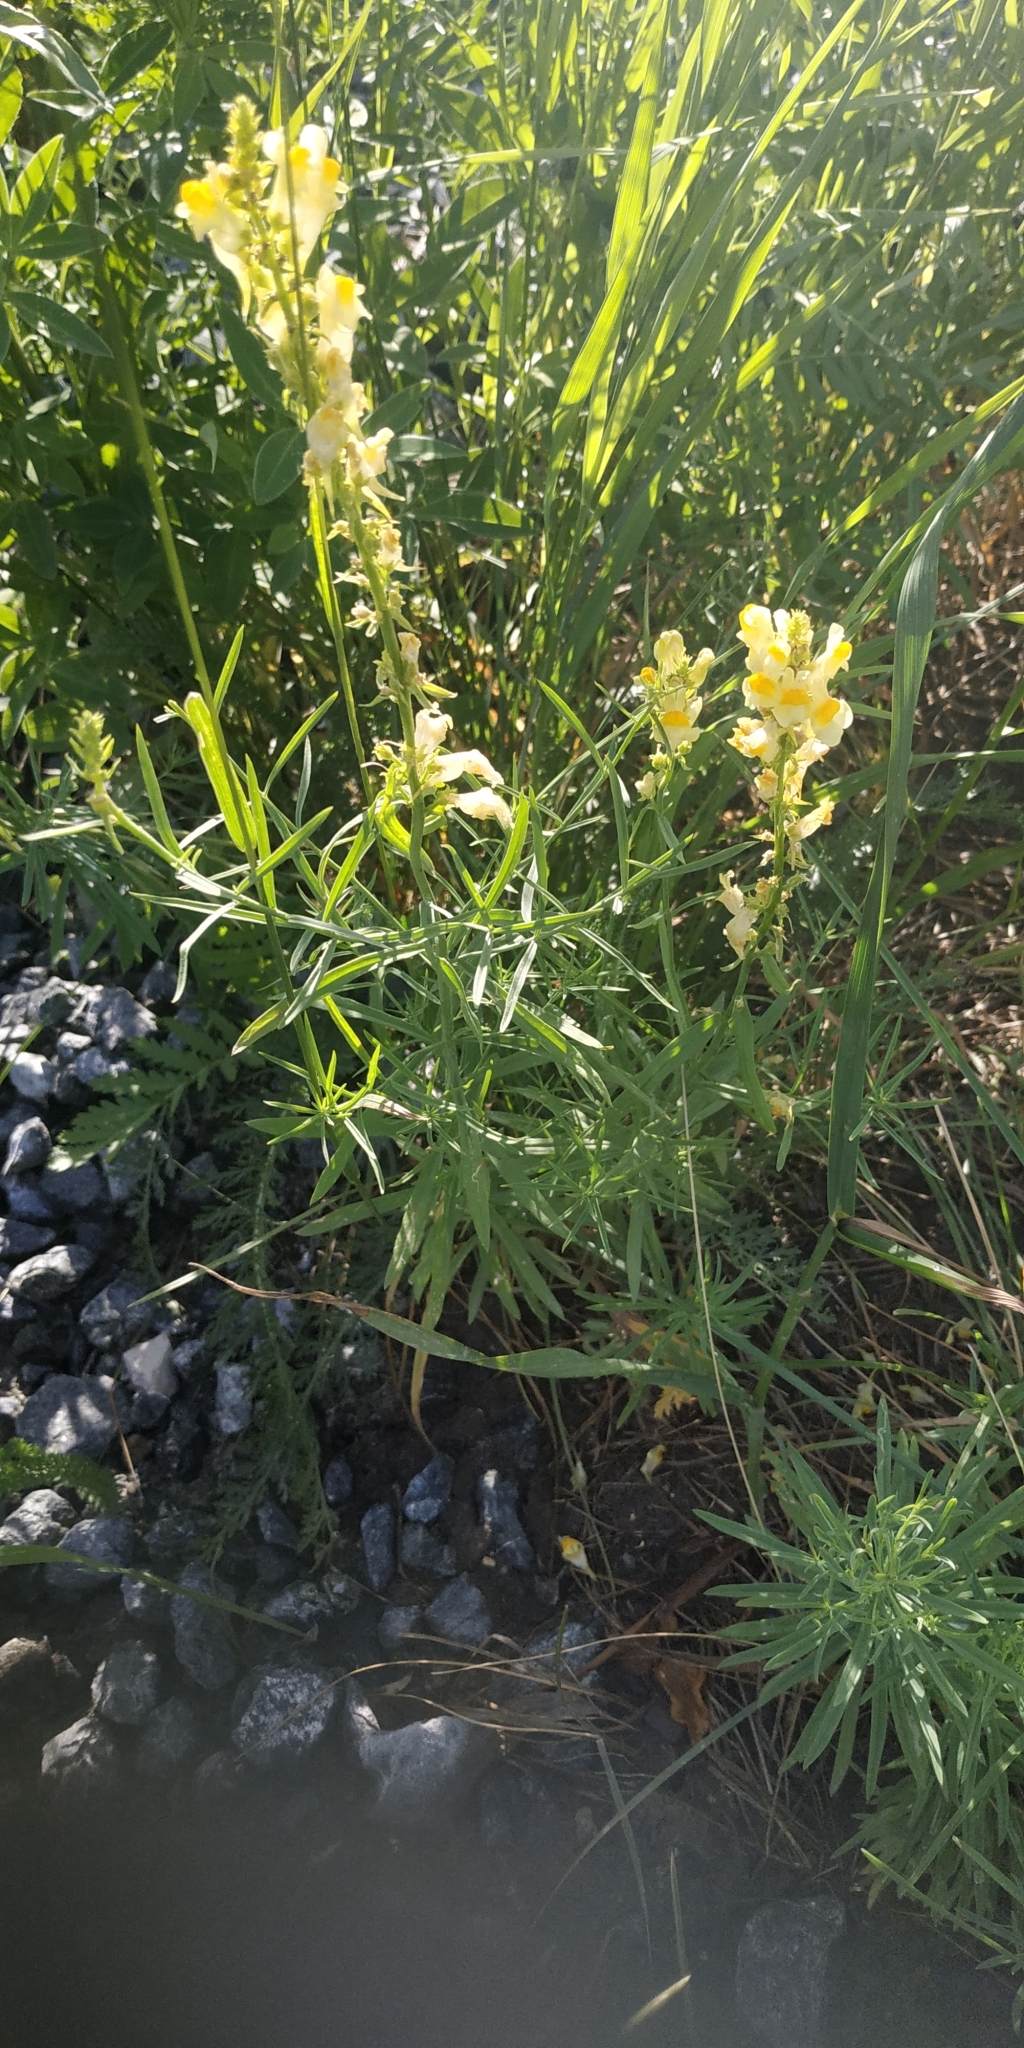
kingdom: Plantae
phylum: Tracheophyta
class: Magnoliopsida
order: Lamiales
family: Plantaginaceae
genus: Linaria
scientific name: Linaria vulgaris
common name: Butter and eggs
